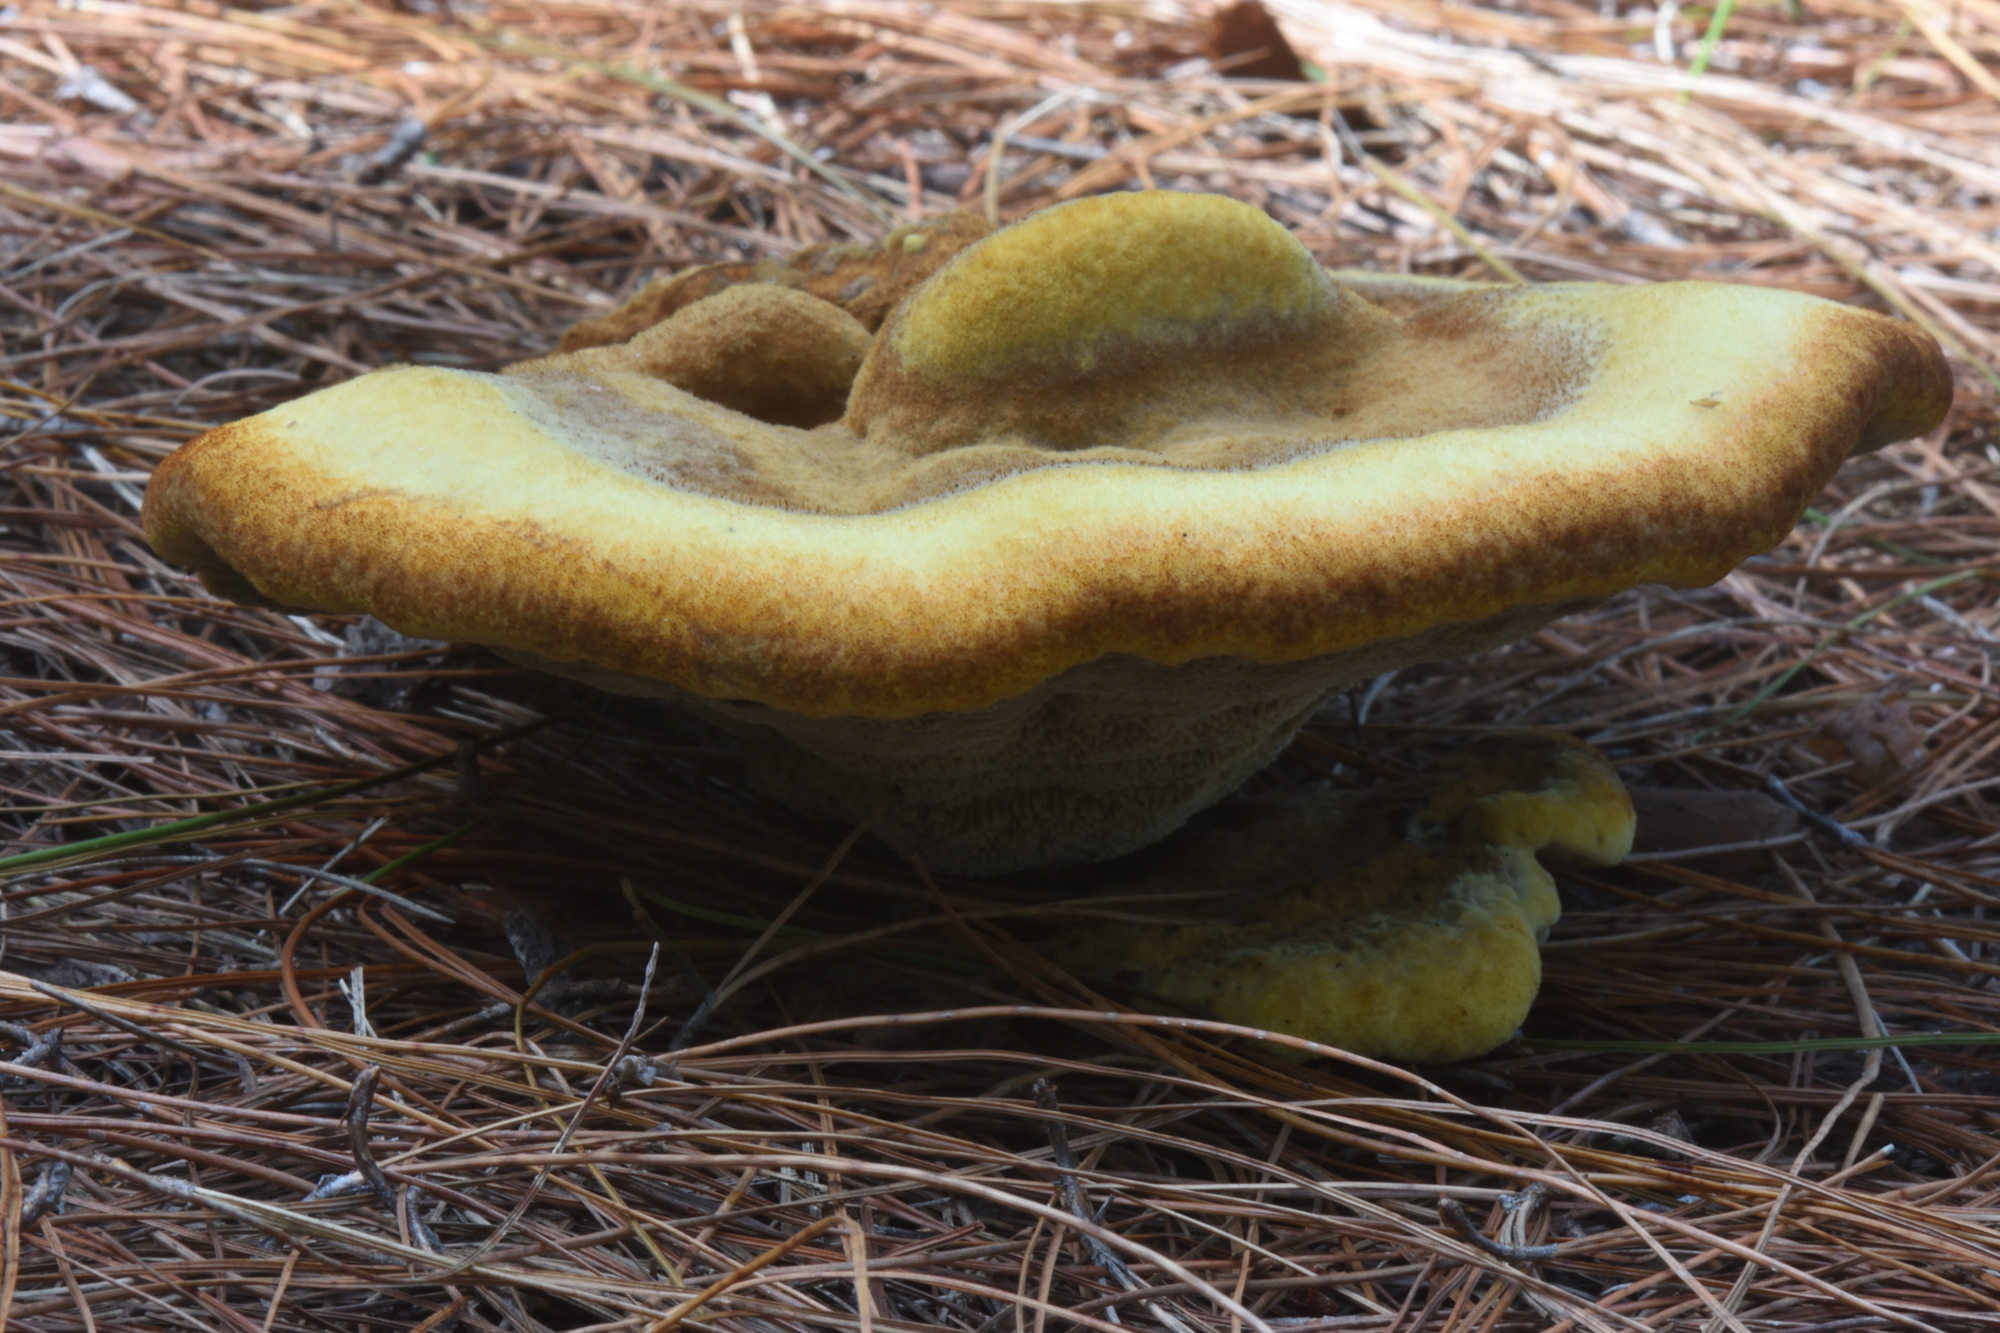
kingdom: Fungi
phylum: Basidiomycota
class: Agaricomycetes
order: Polyporales
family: Laetiporaceae
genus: Phaeolus
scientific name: Phaeolus schweinitzii
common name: Dyer's mazegill
